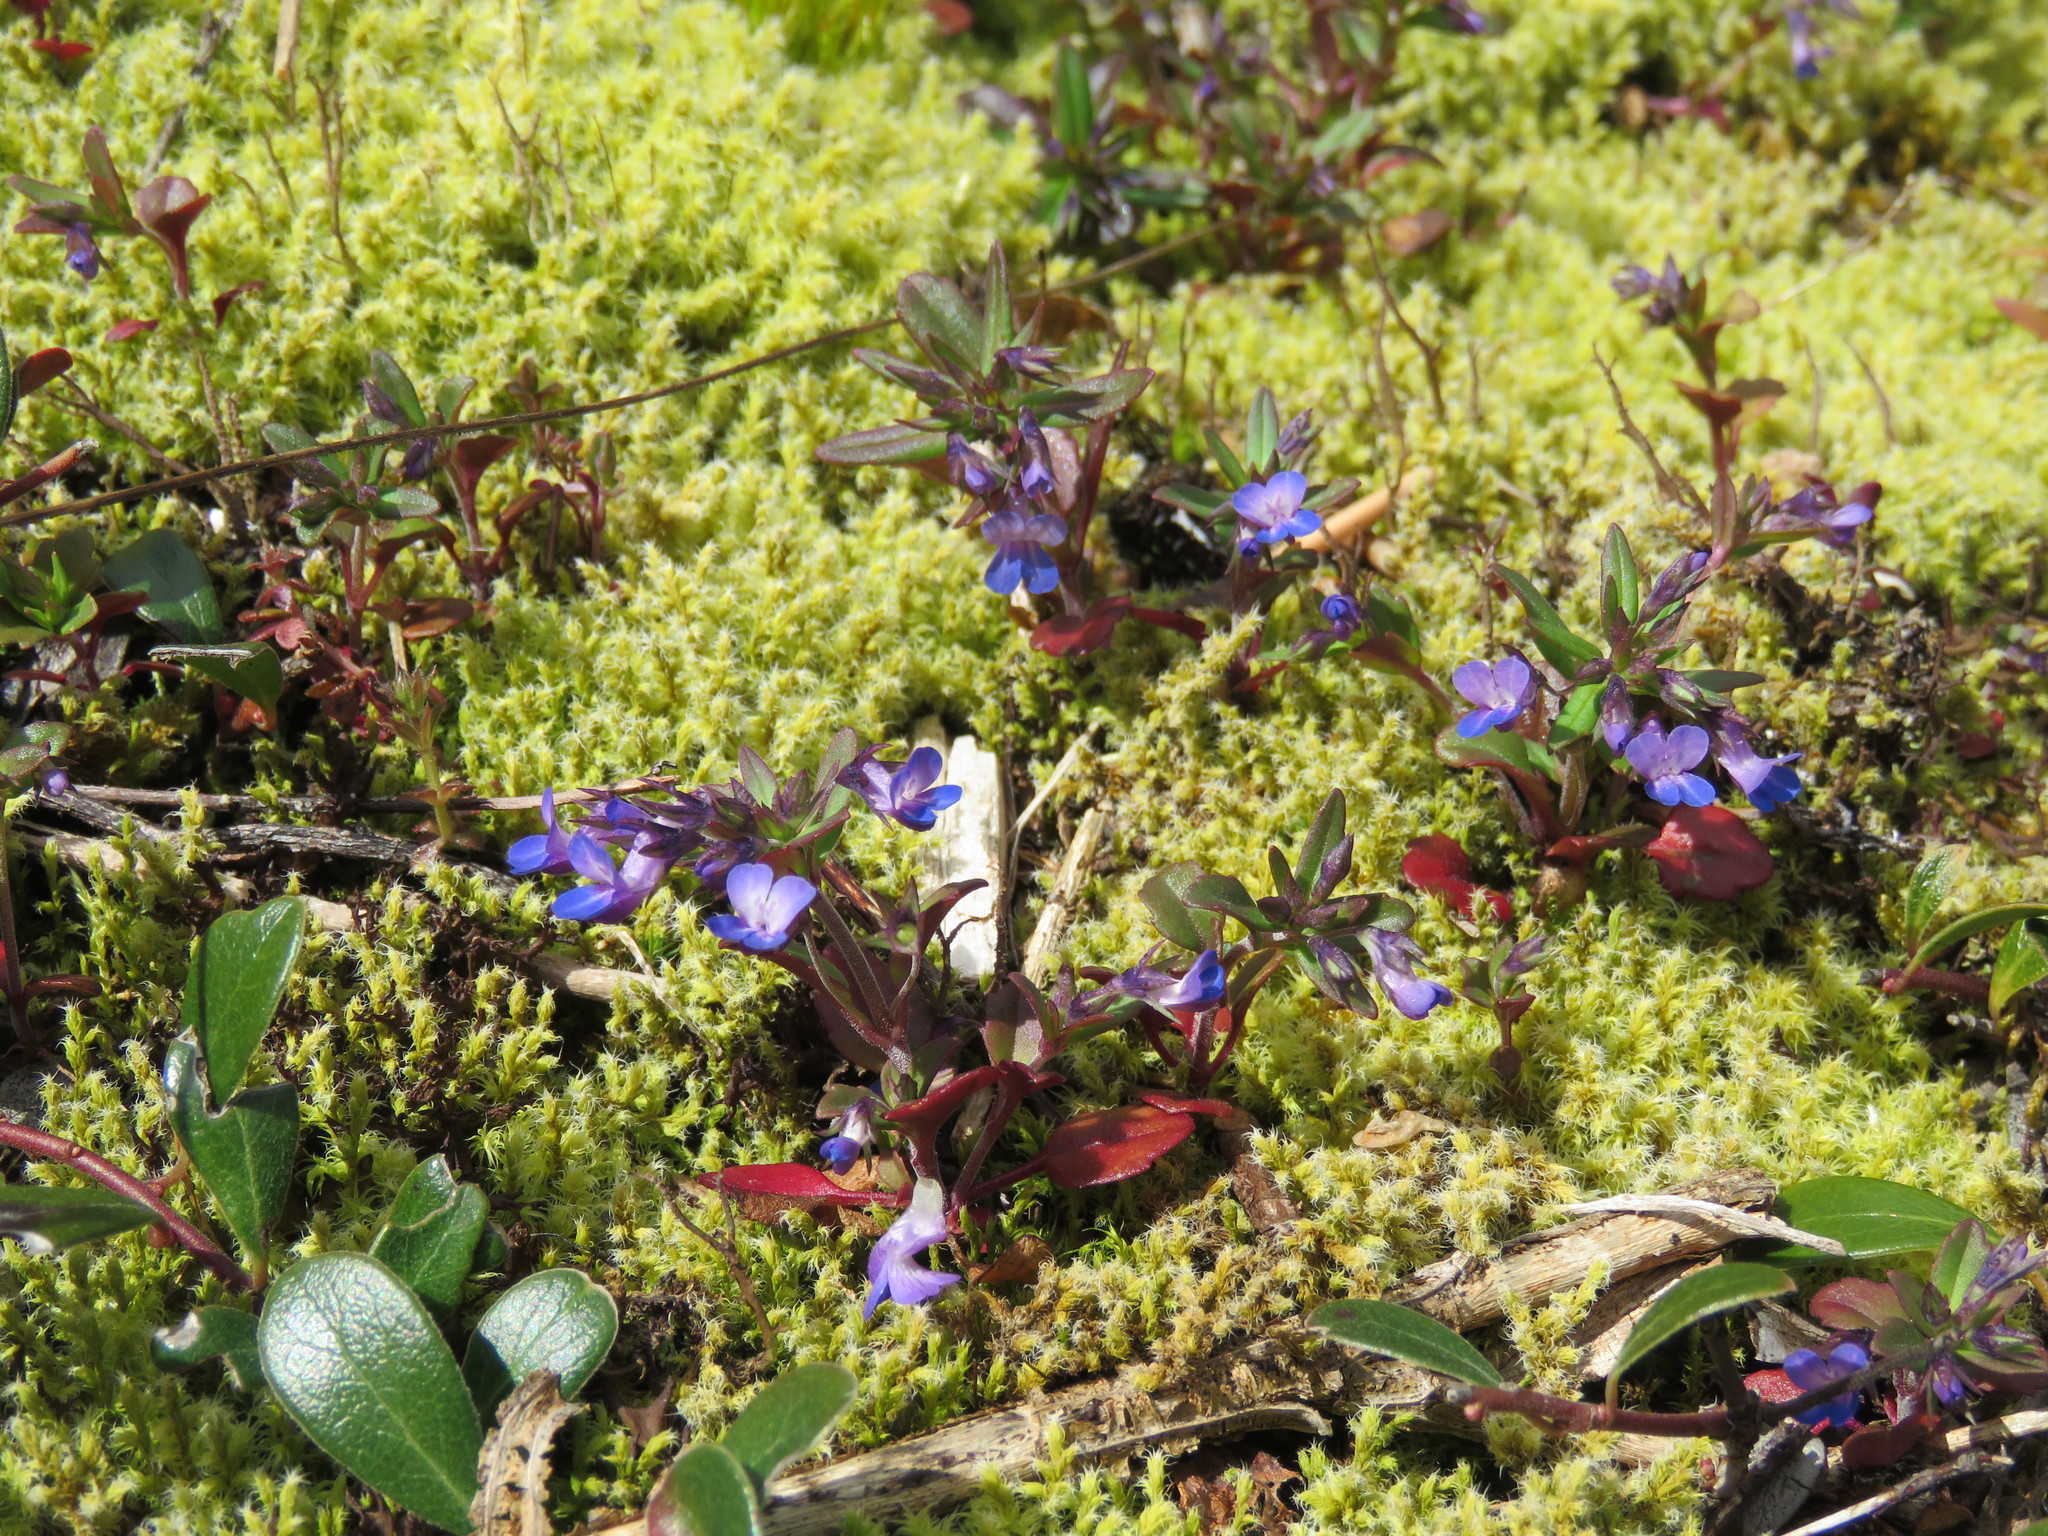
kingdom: Plantae
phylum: Tracheophyta
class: Magnoliopsida
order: Lamiales
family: Plantaginaceae
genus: Collinsia
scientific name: Collinsia parviflora
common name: Blue-lips
